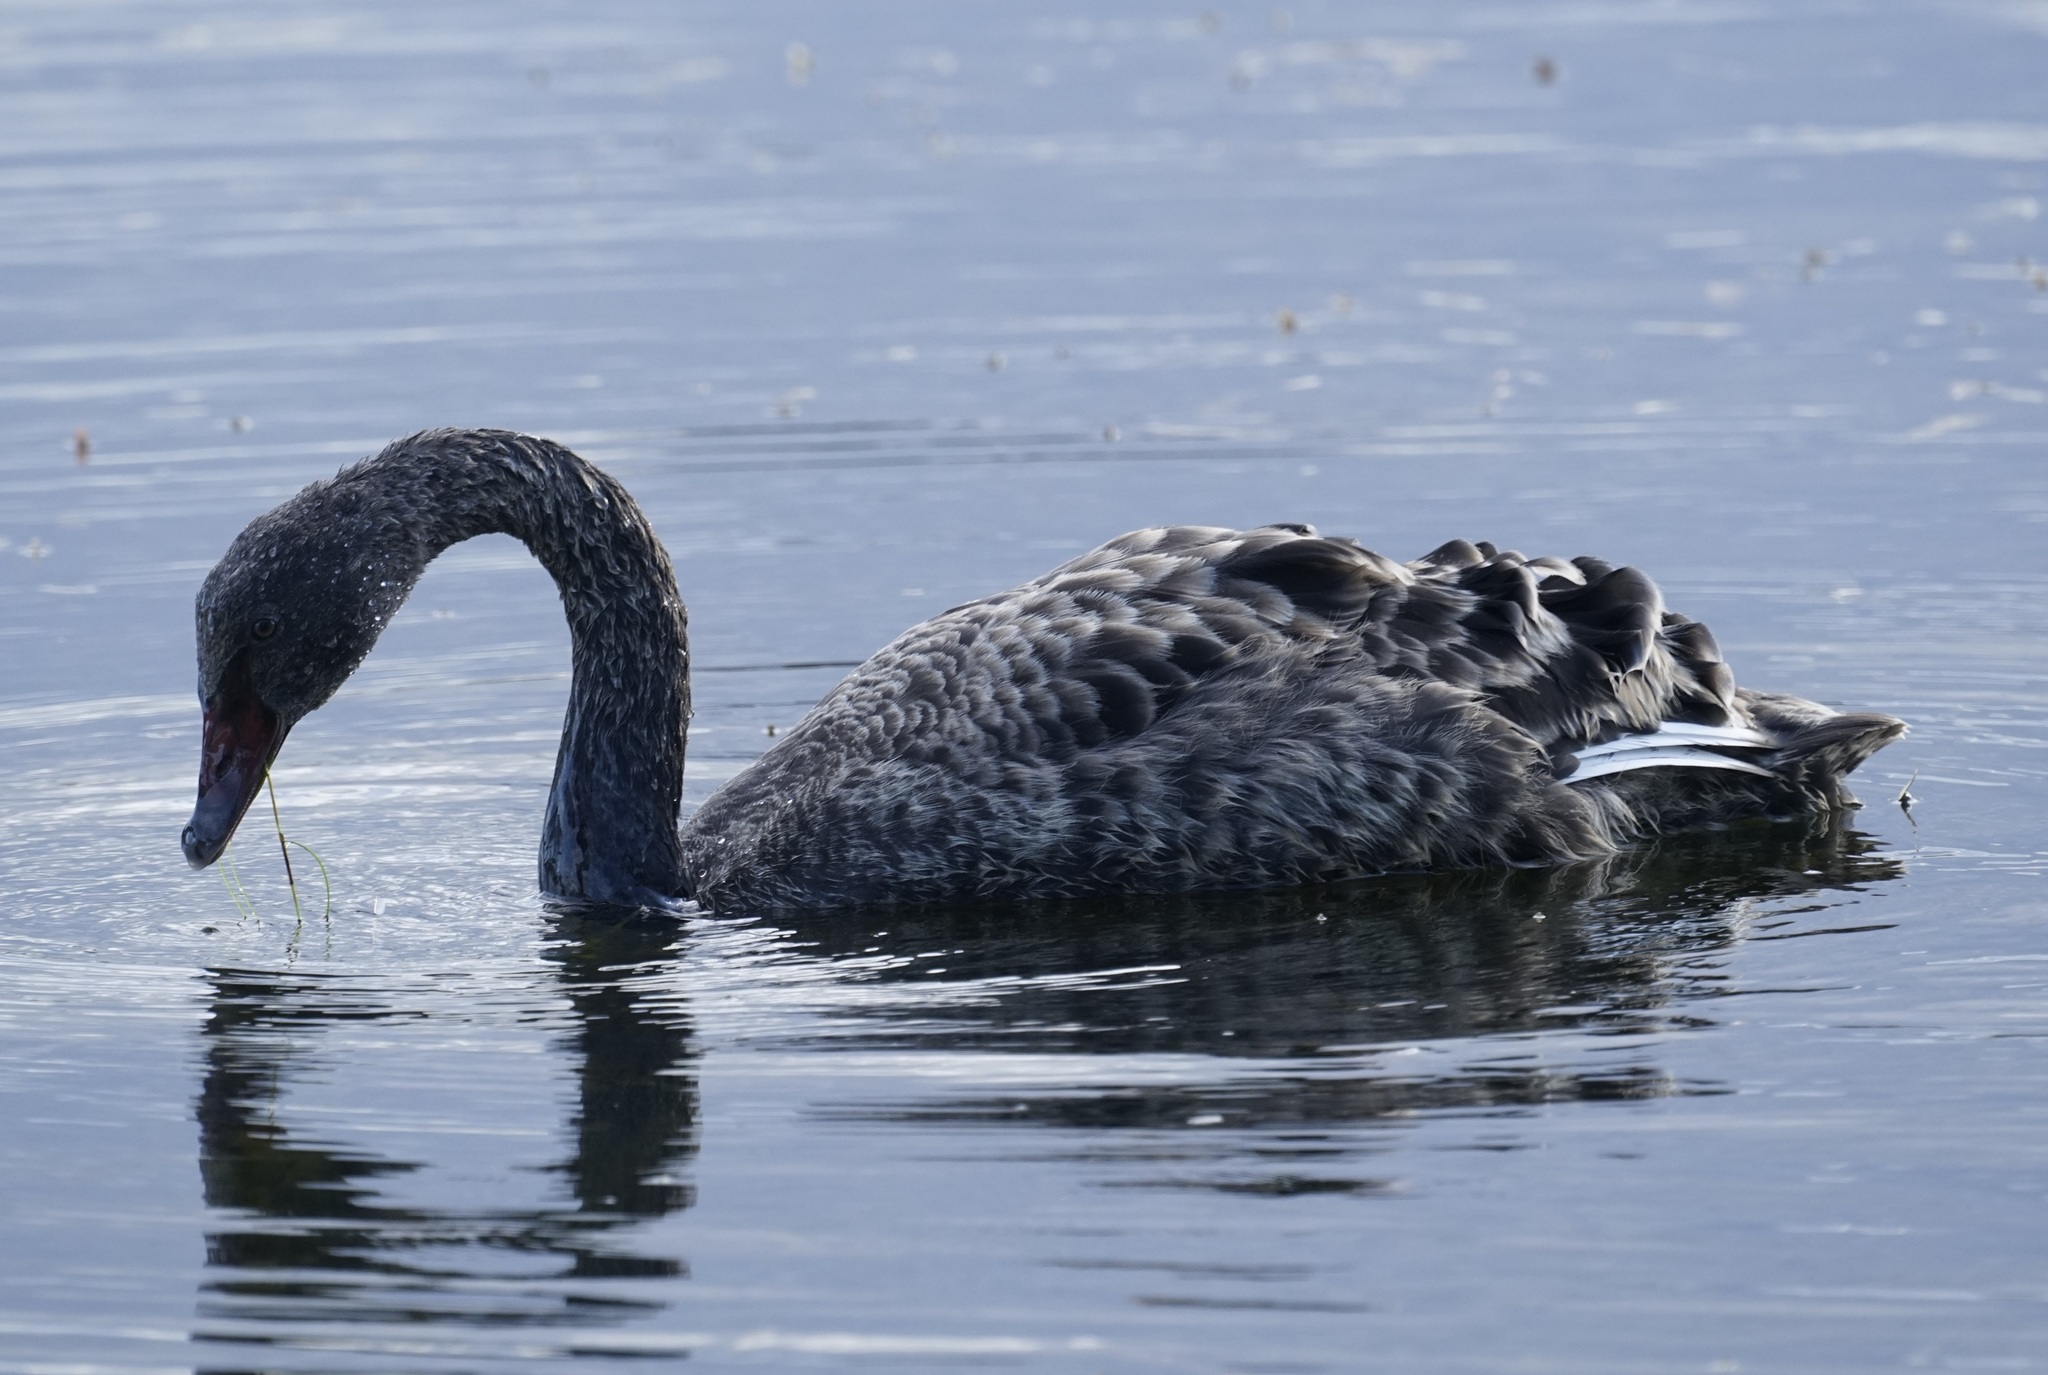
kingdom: Animalia
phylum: Chordata
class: Aves
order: Anseriformes
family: Anatidae
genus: Cygnus
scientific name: Cygnus atratus
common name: Black swan
